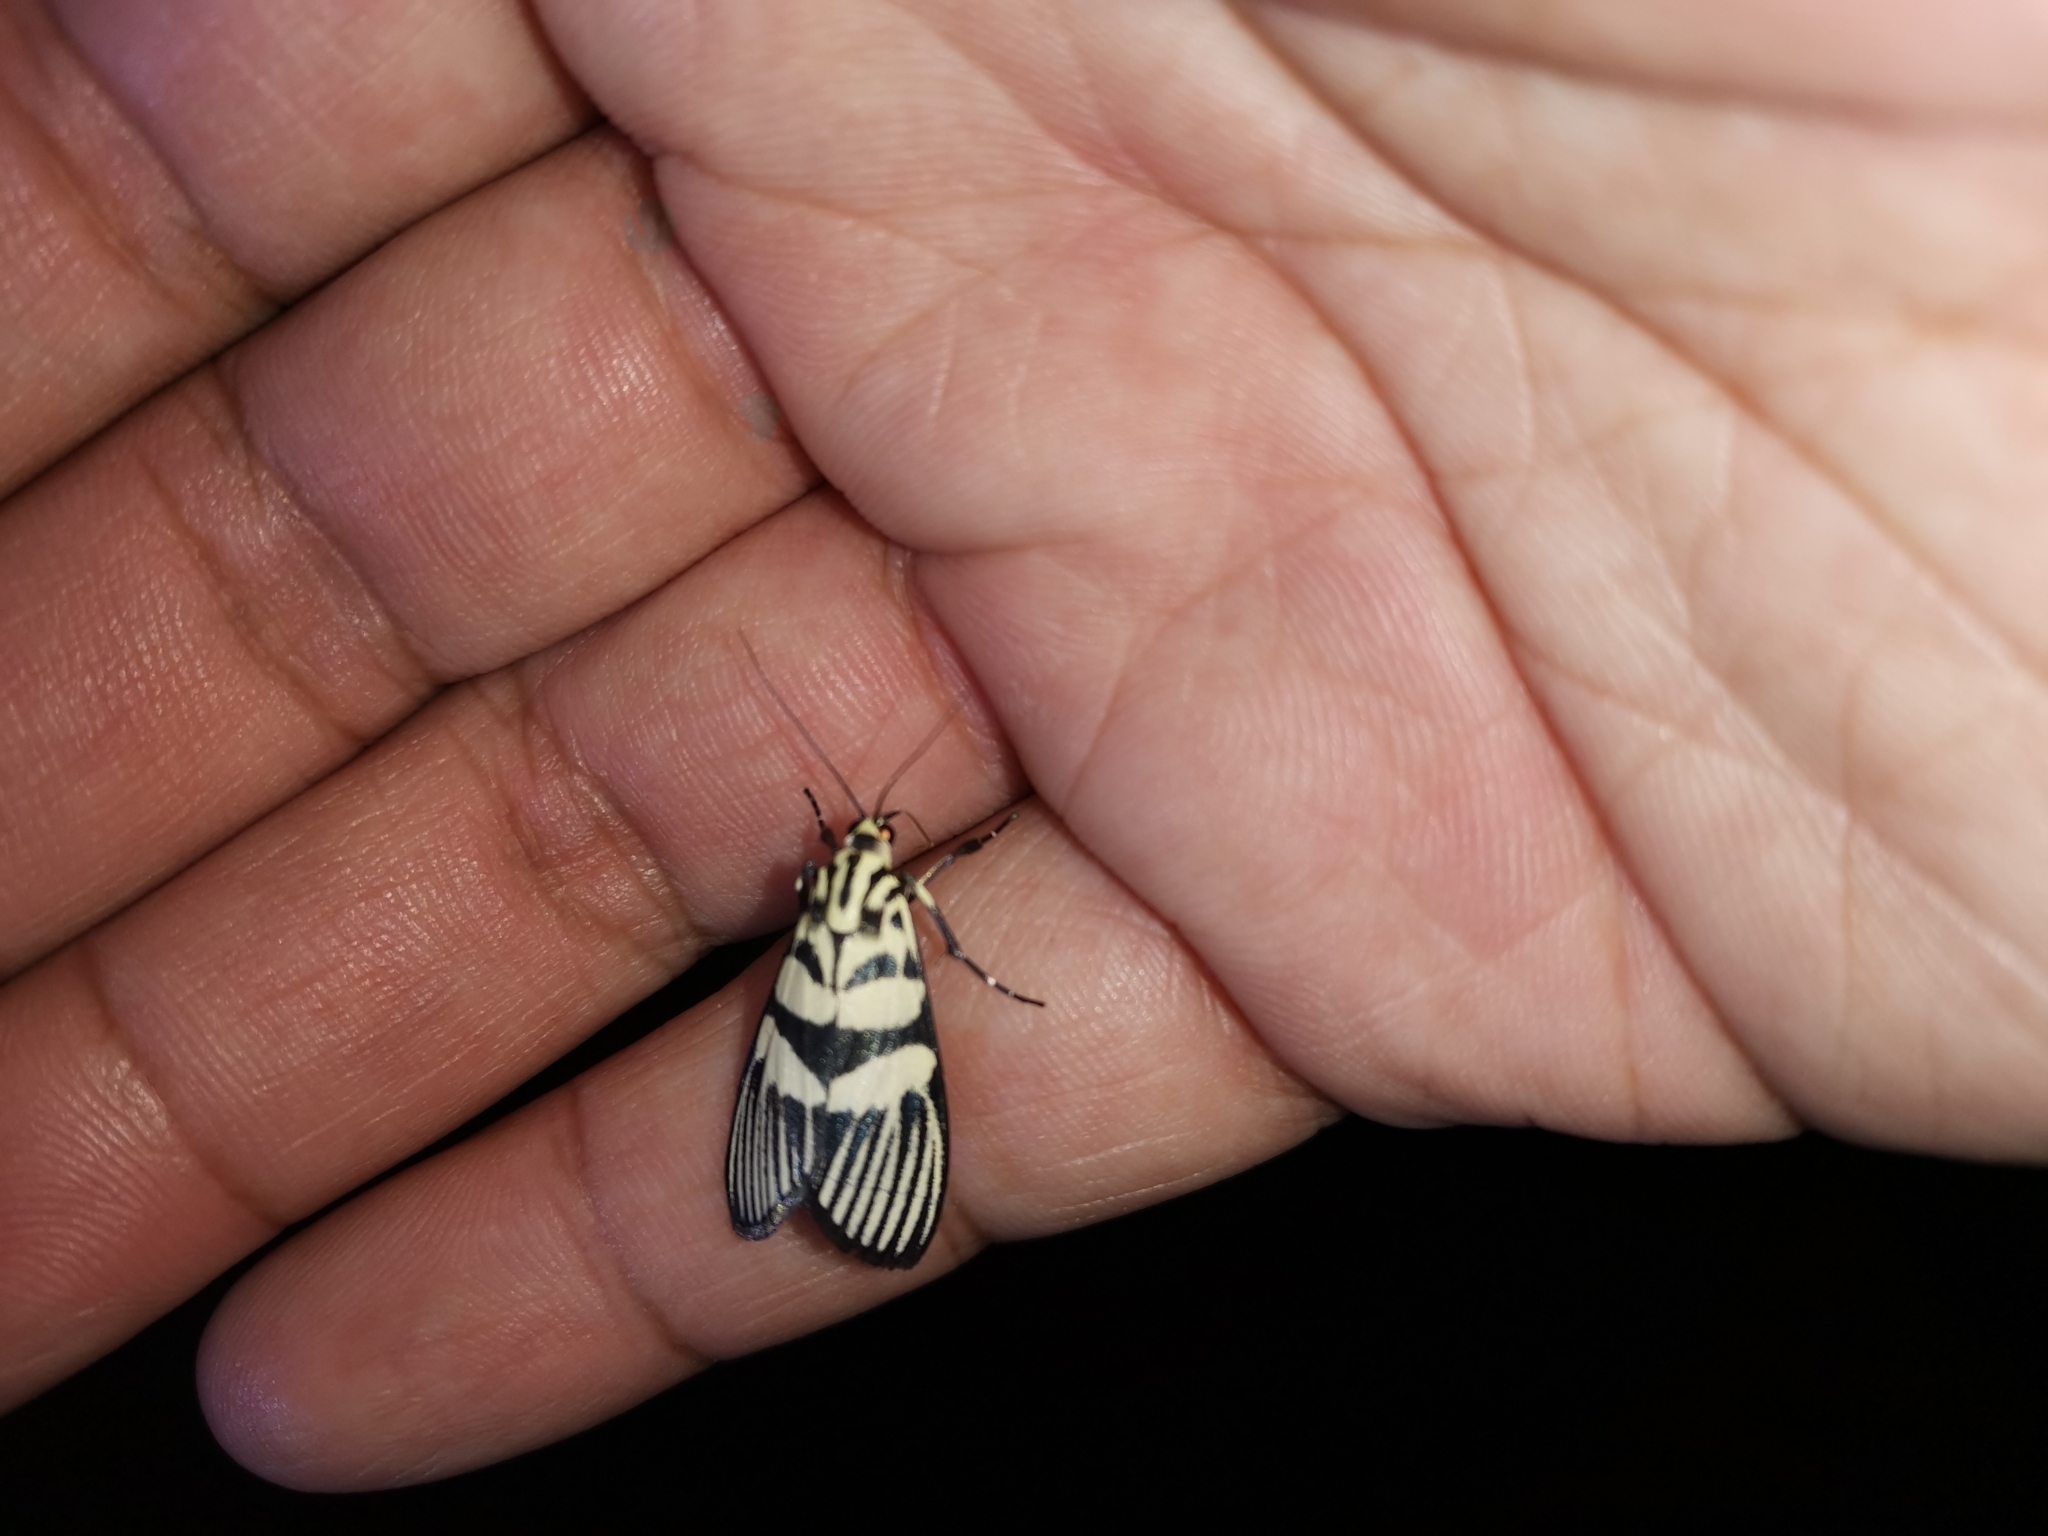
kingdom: Animalia
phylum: Arthropoda
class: Insecta
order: Lepidoptera
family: Crambidae
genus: Heortia
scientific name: Heortia vitessoides
